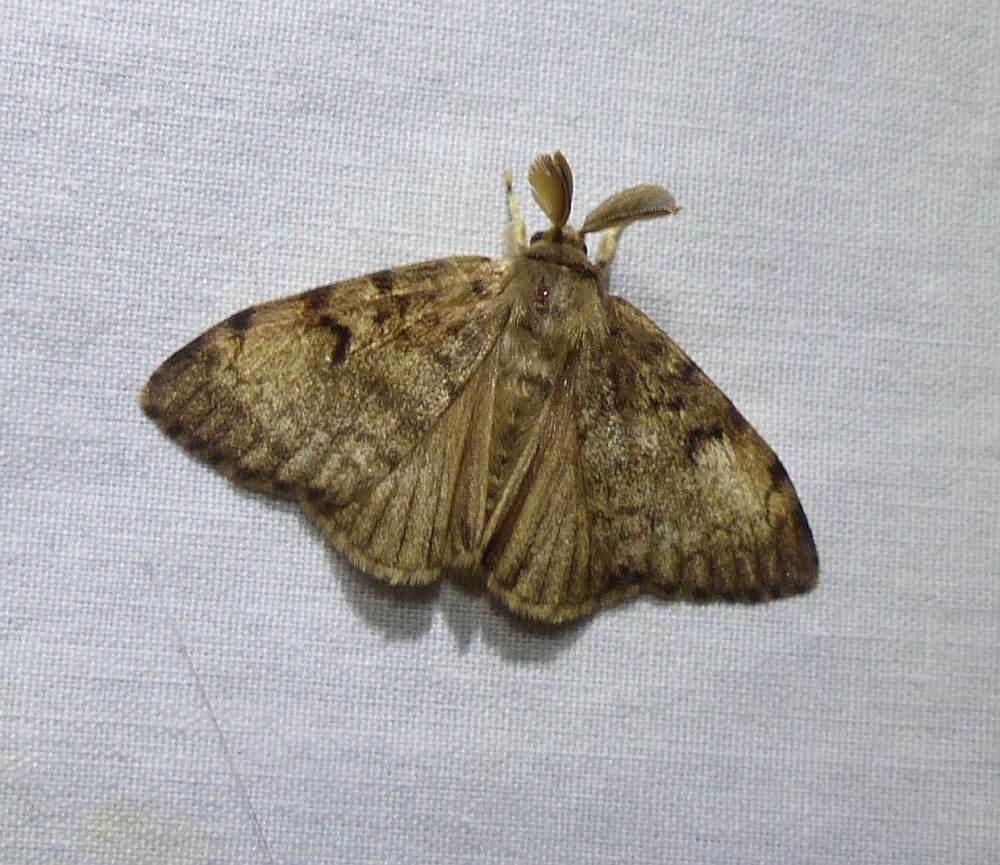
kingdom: Animalia
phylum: Arthropoda
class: Insecta
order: Lepidoptera
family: Erebidae
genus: Lymantria
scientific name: Lymantria dispar
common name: Gypsy moth
